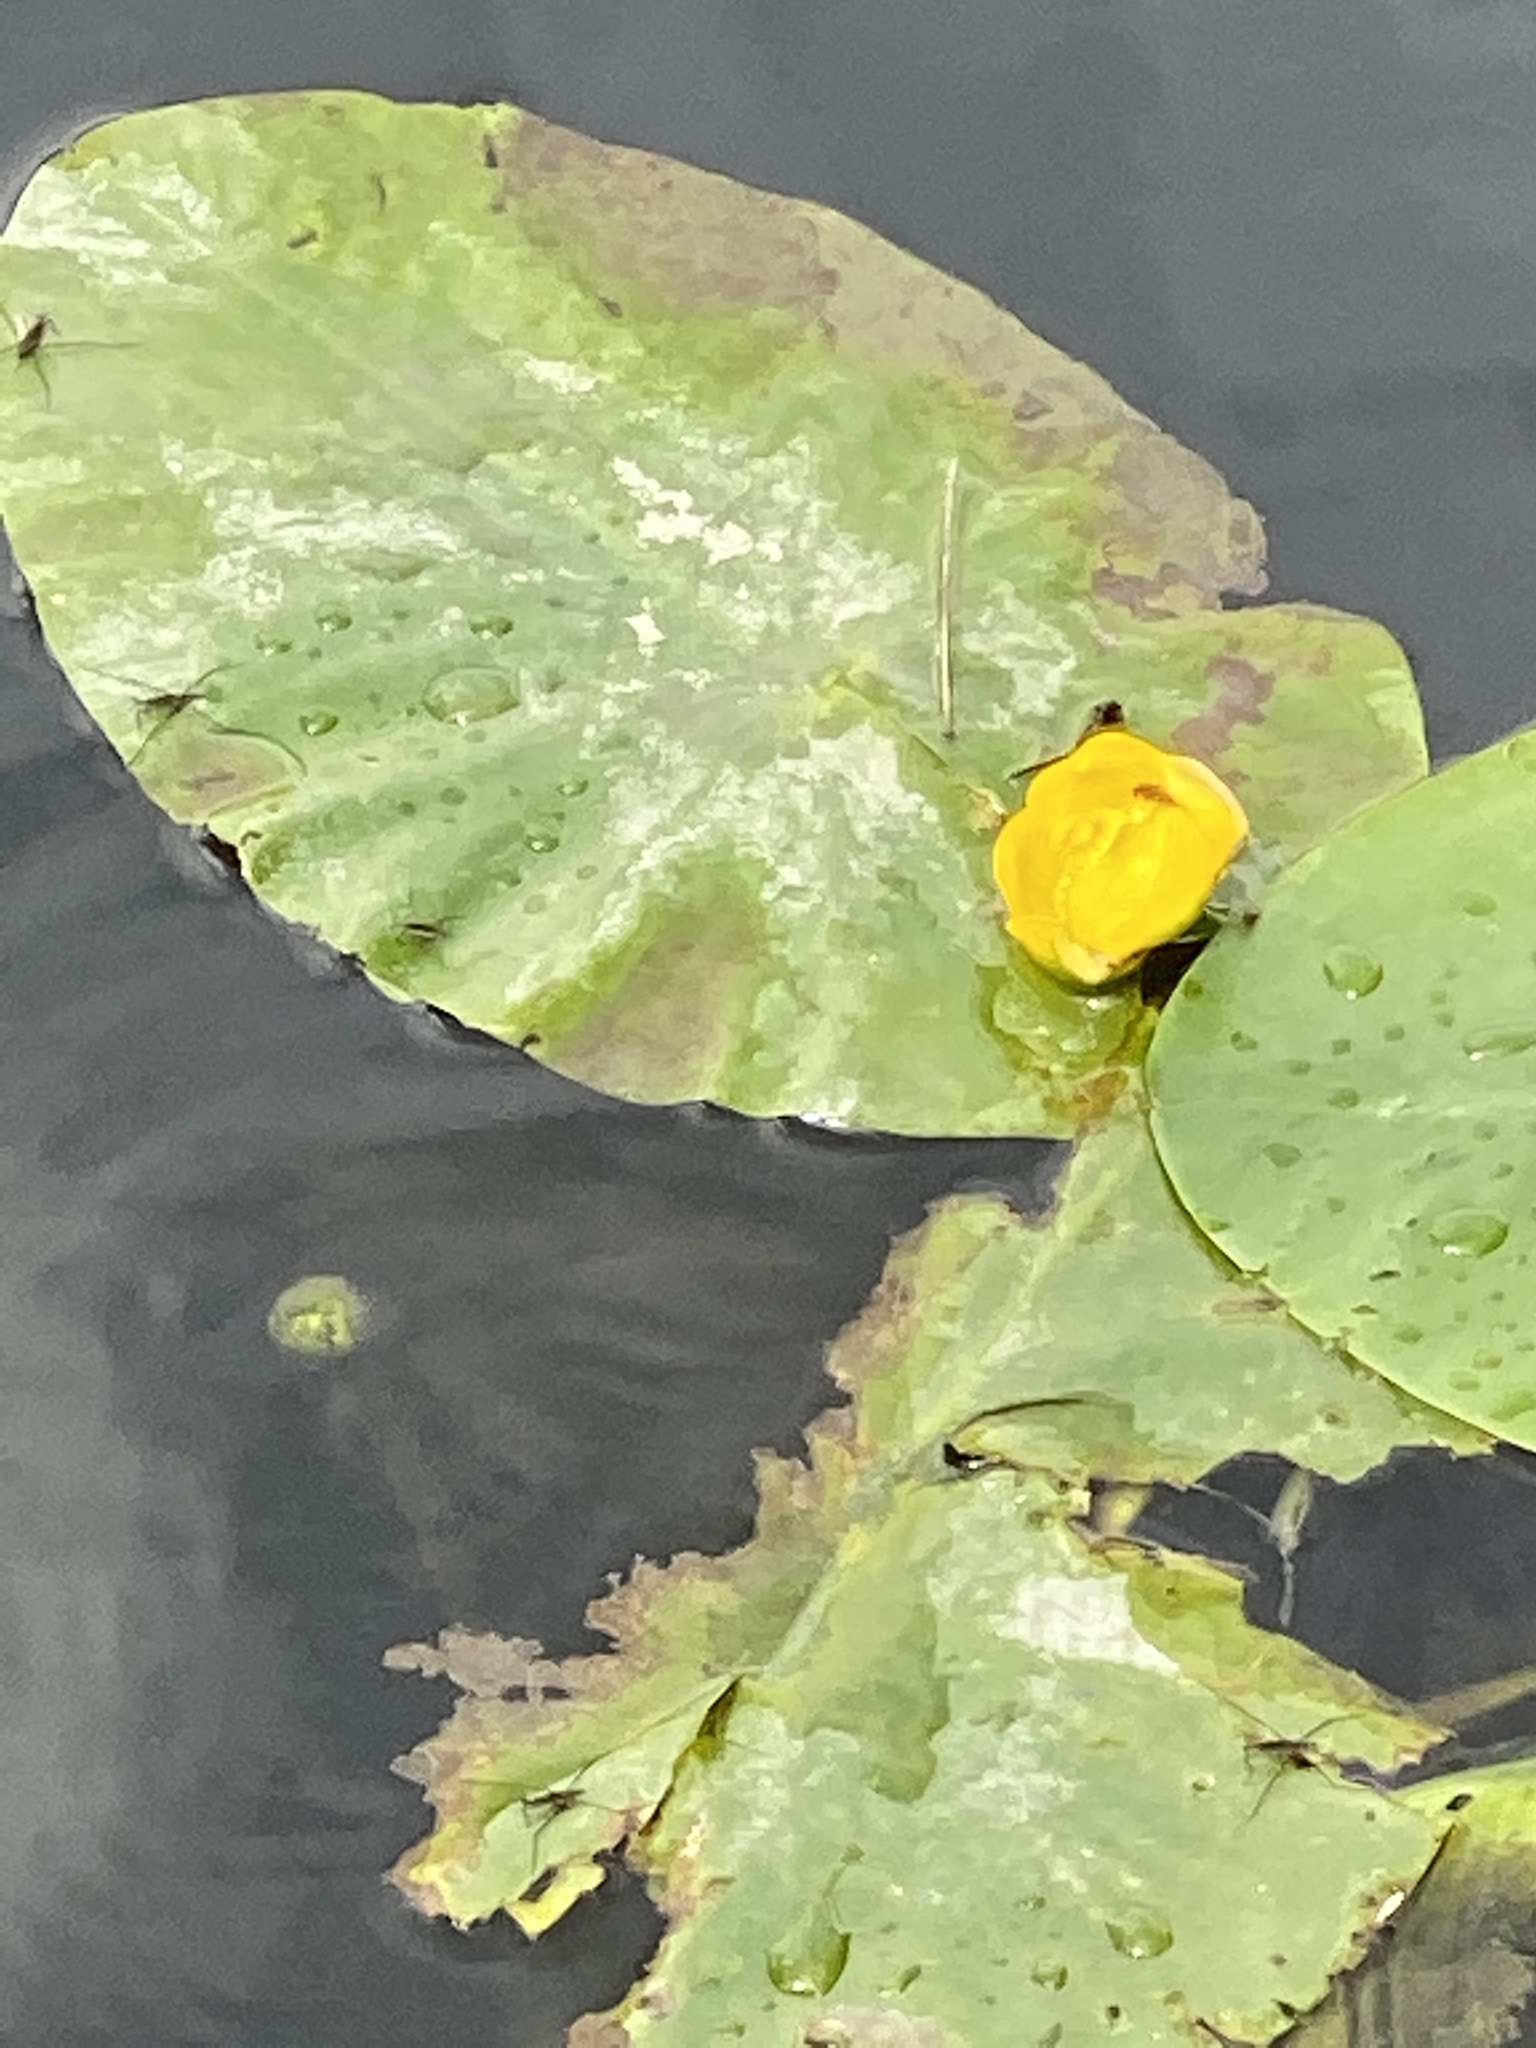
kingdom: Plantae
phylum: Tracheophyta
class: Magnoliopsida
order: Nymphaeales
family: Nymphaeaceae
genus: Nuphar
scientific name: Nuphar lutea
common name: Yellow water-lily
